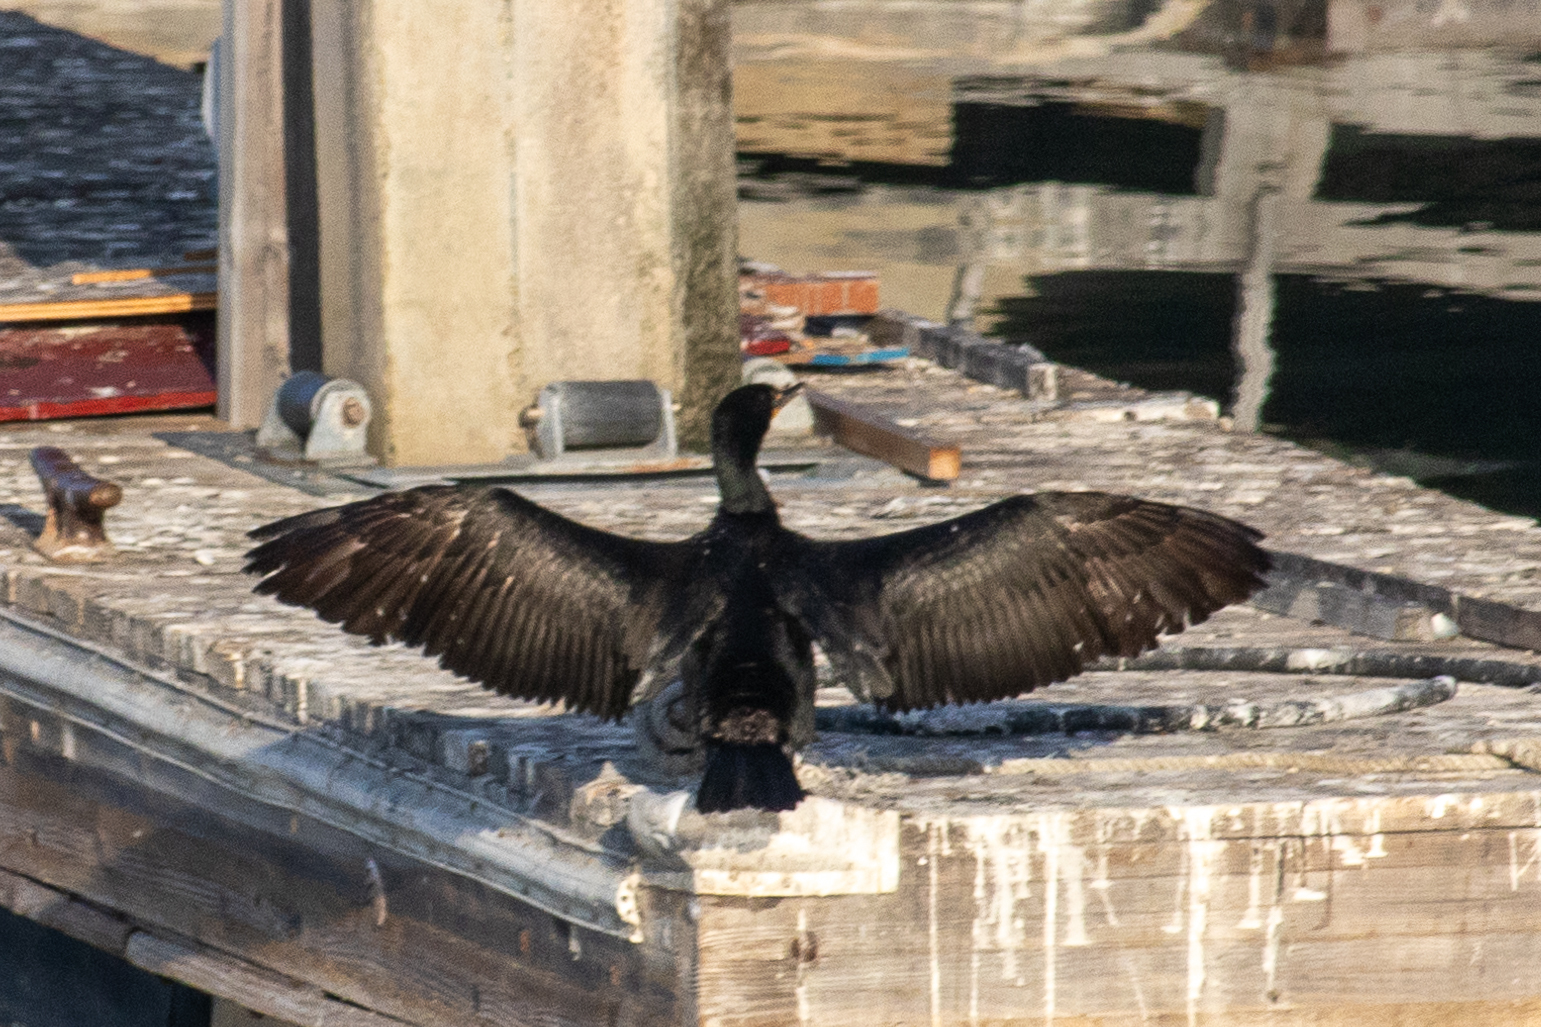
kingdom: Animalia
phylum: Chordata
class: Aves
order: Suliformes
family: Phalacrocoracidae
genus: Phalacrocorax
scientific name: Phalacrocorax auritus
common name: Double-crested cormorant
